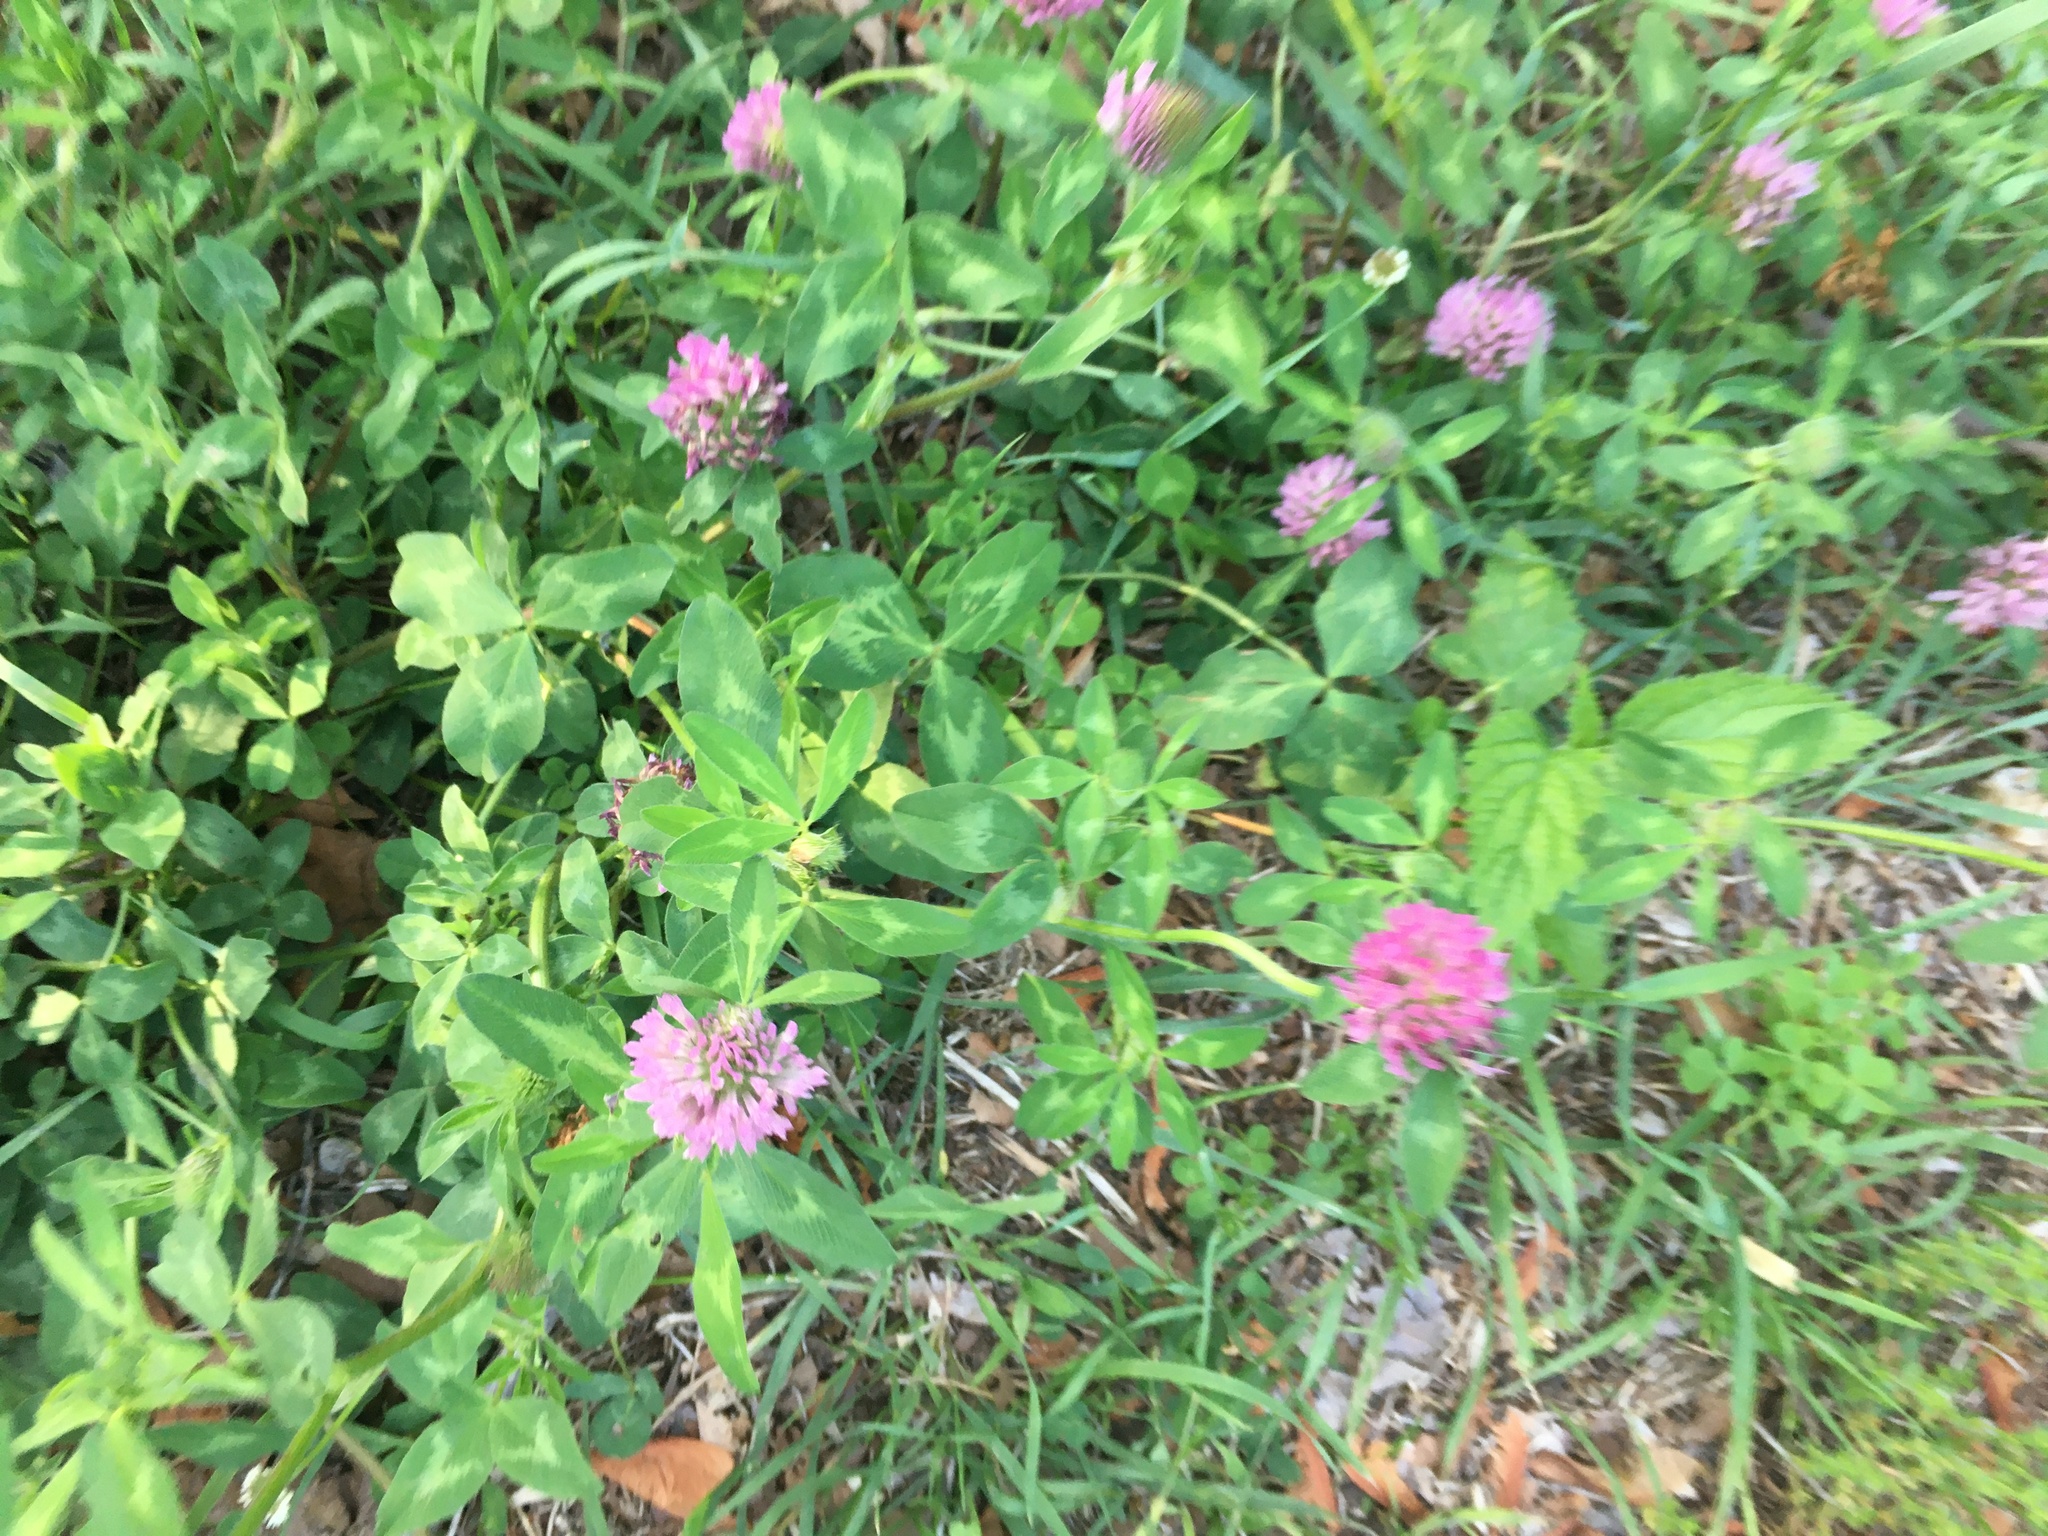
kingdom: Plantae
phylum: Tracheophyta
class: Magnoliopsida
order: Fabales
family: Fabaceae
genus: Trifolium
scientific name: Trifolium pratense
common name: Red clover
